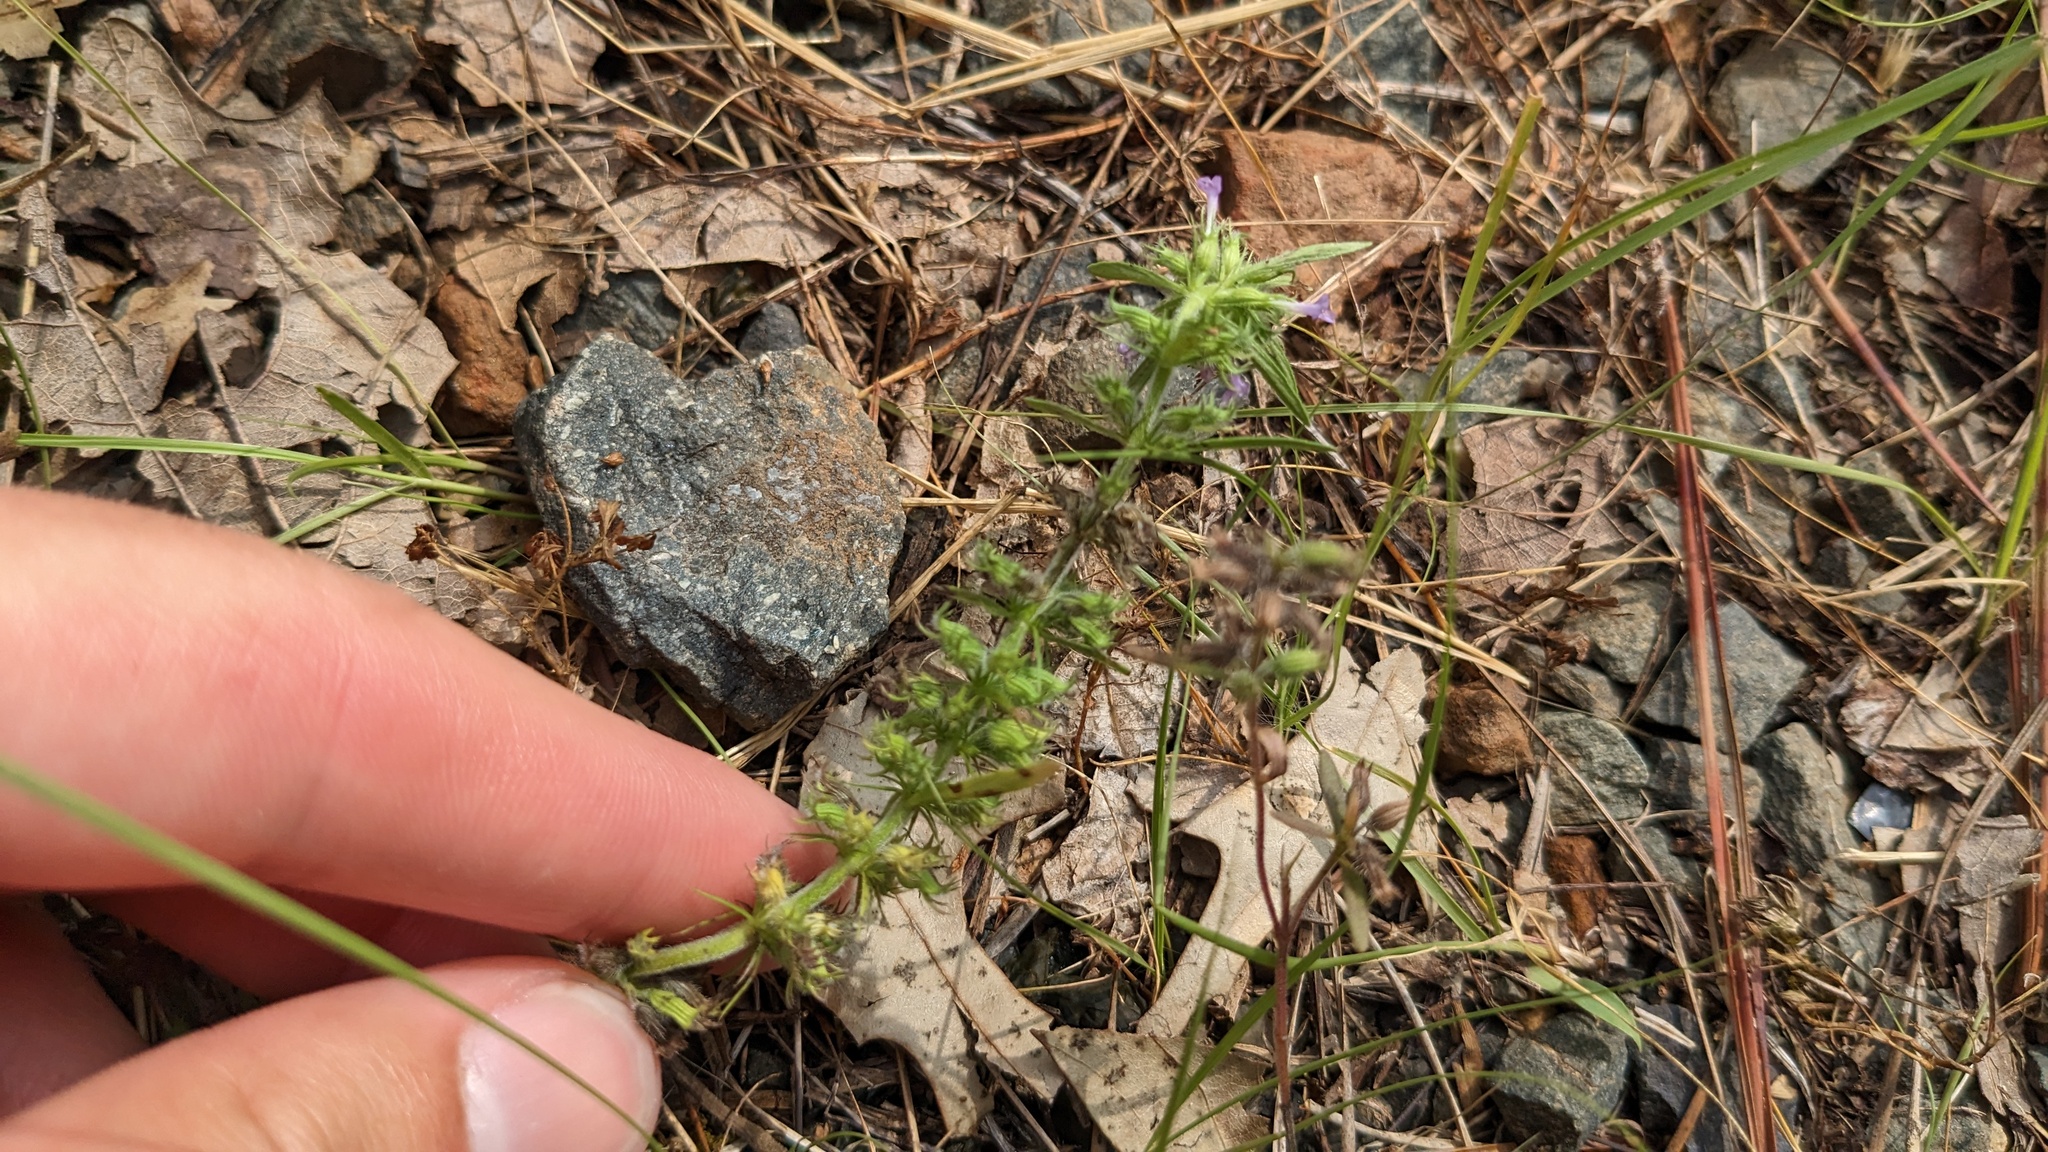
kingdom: Plantae
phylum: Tracheophyta
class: Magnoliopsida
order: Lamiales
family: Lamiaceae
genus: Hedeoma
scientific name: Hedeoma hispida
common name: Mock pennyroyal
